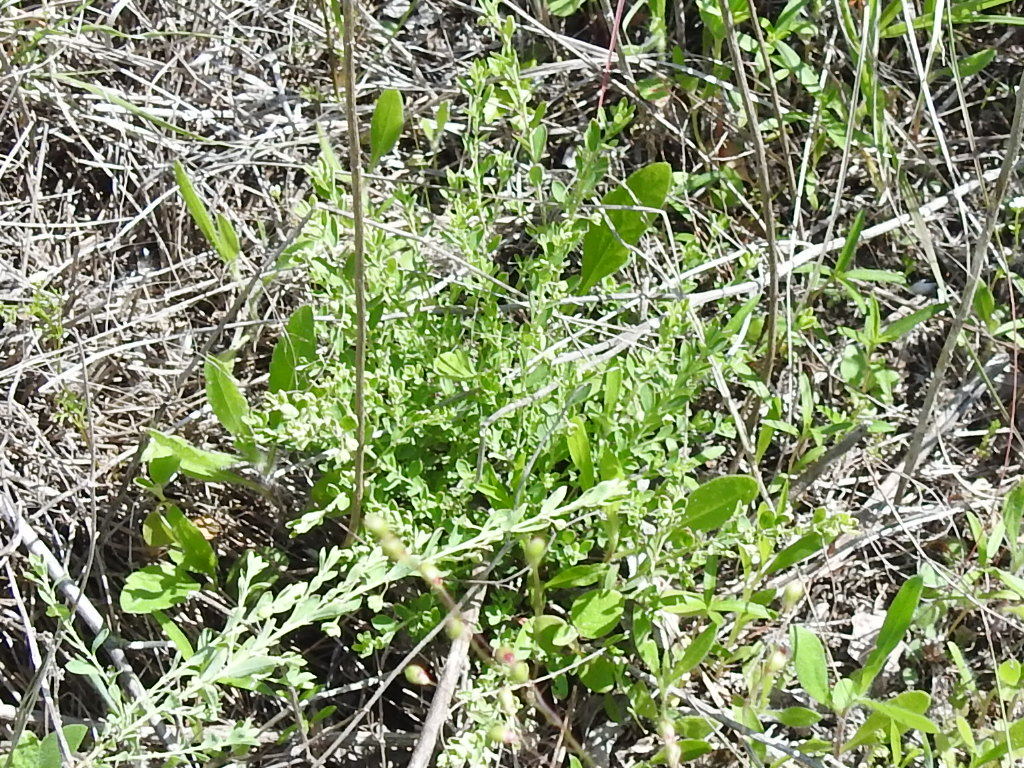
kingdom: Plantae
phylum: Tracheophyta
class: Magnoliopsida
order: Malpighiales
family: Phyllanthaceae
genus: Phyllanthus
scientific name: Phyllanthus polygonoides
